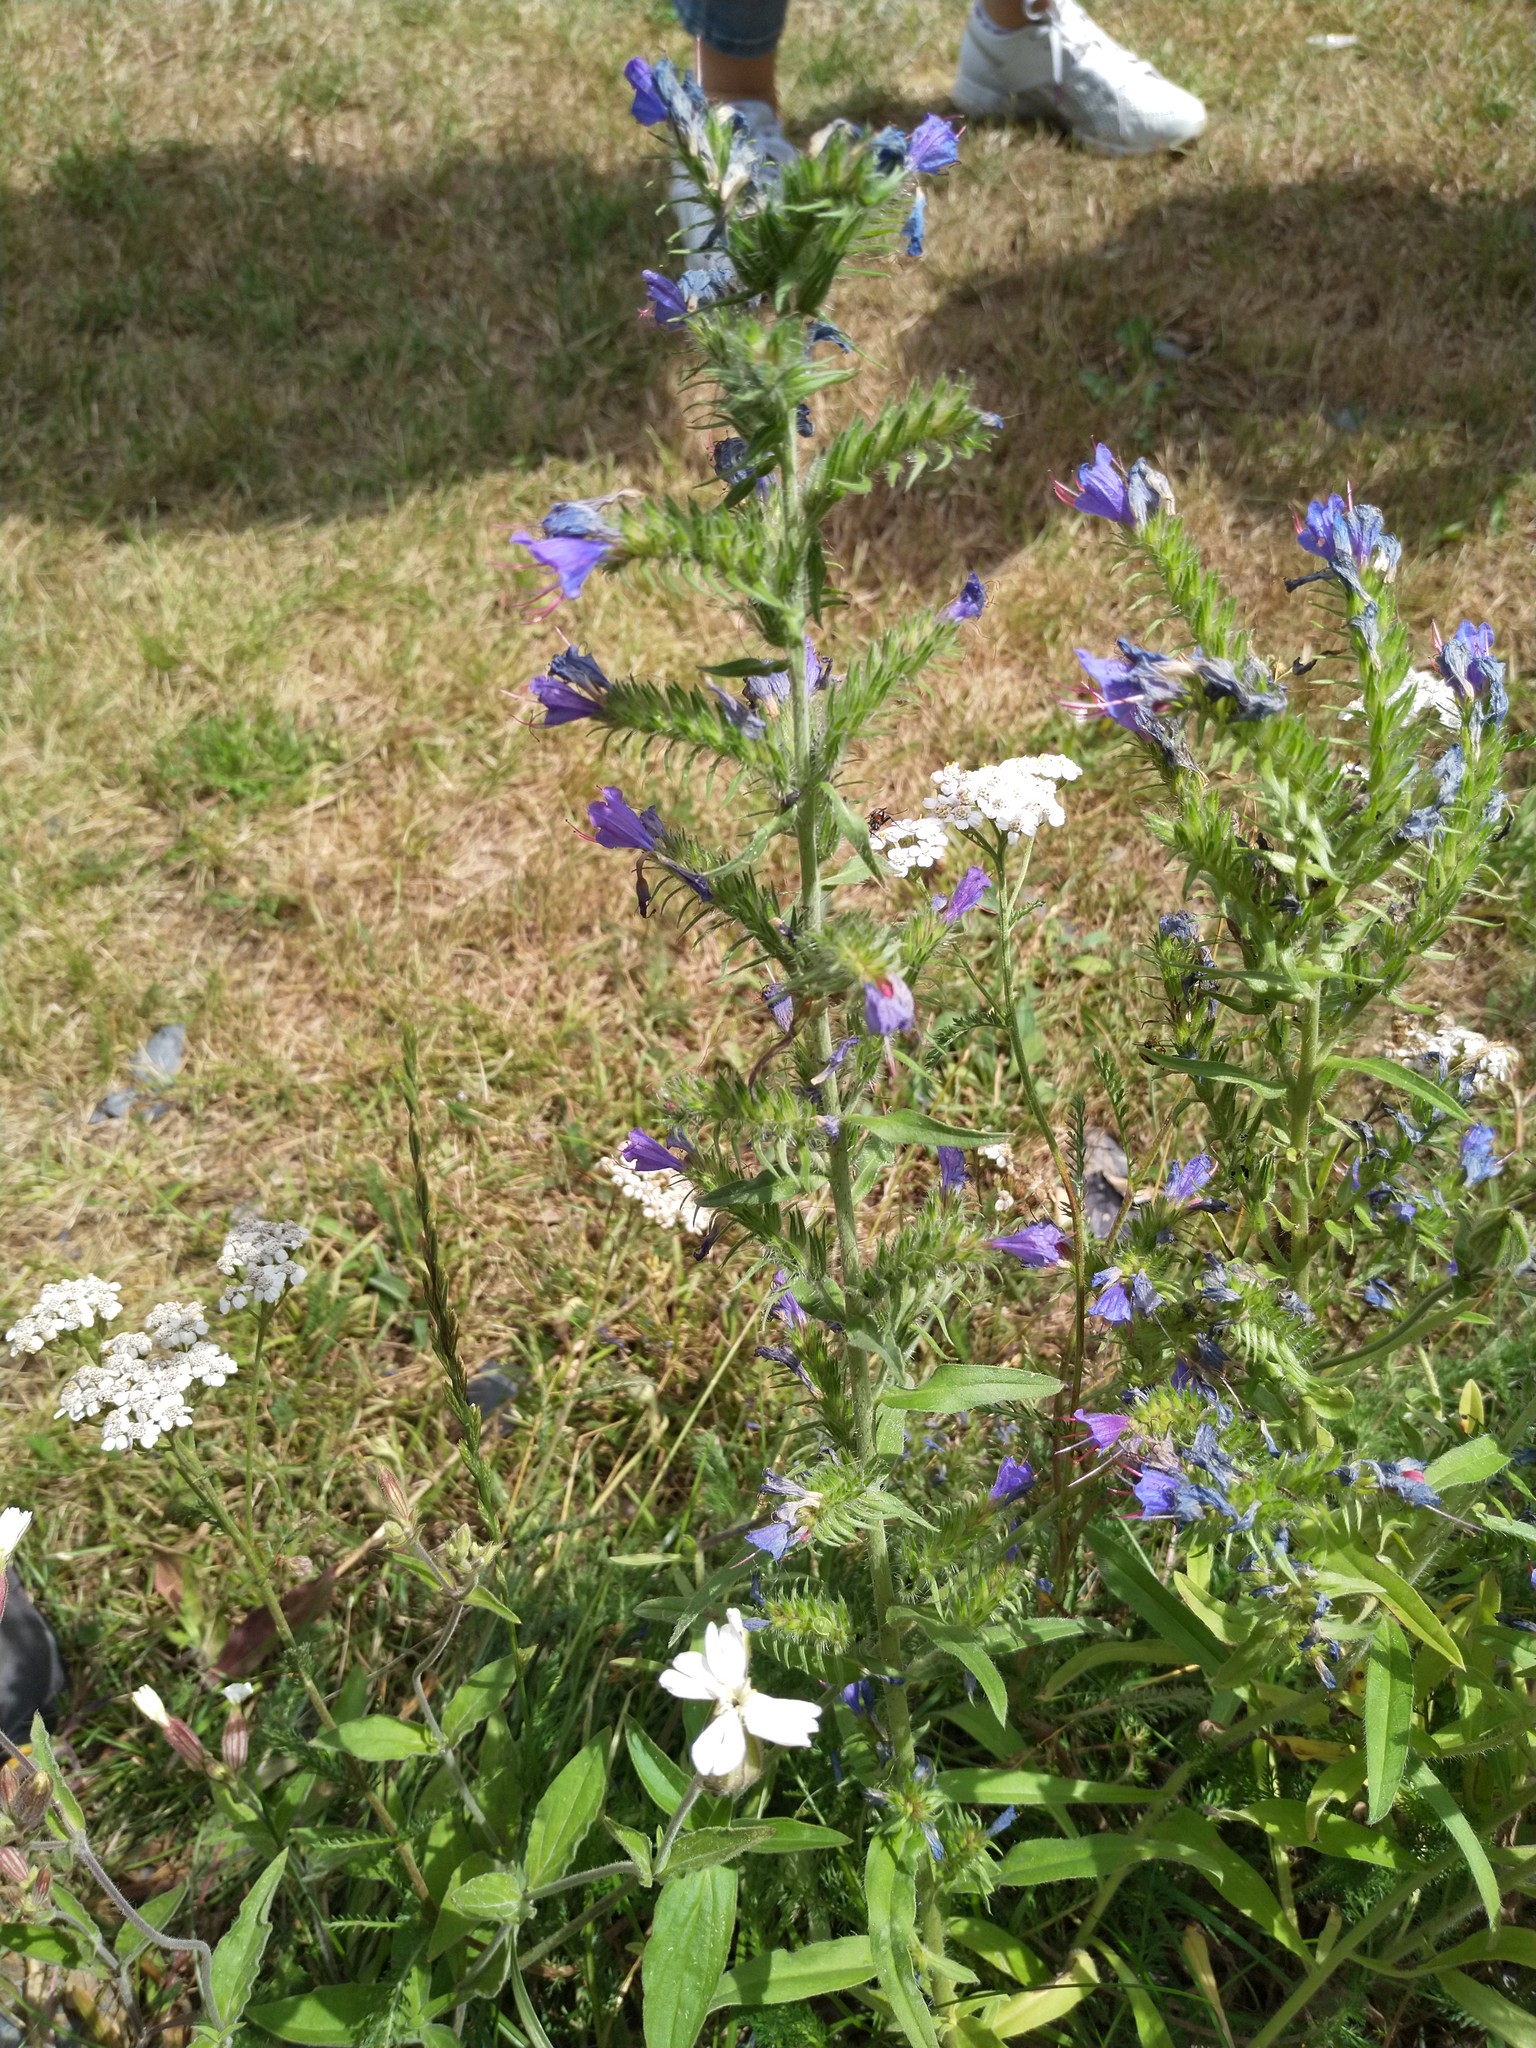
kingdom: Plantae
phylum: Tracheophyta
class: Magnoliopsida
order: Boraginales
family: Boraginaceae
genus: Echium
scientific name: Echium vulgare
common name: Common viper's bugloss
